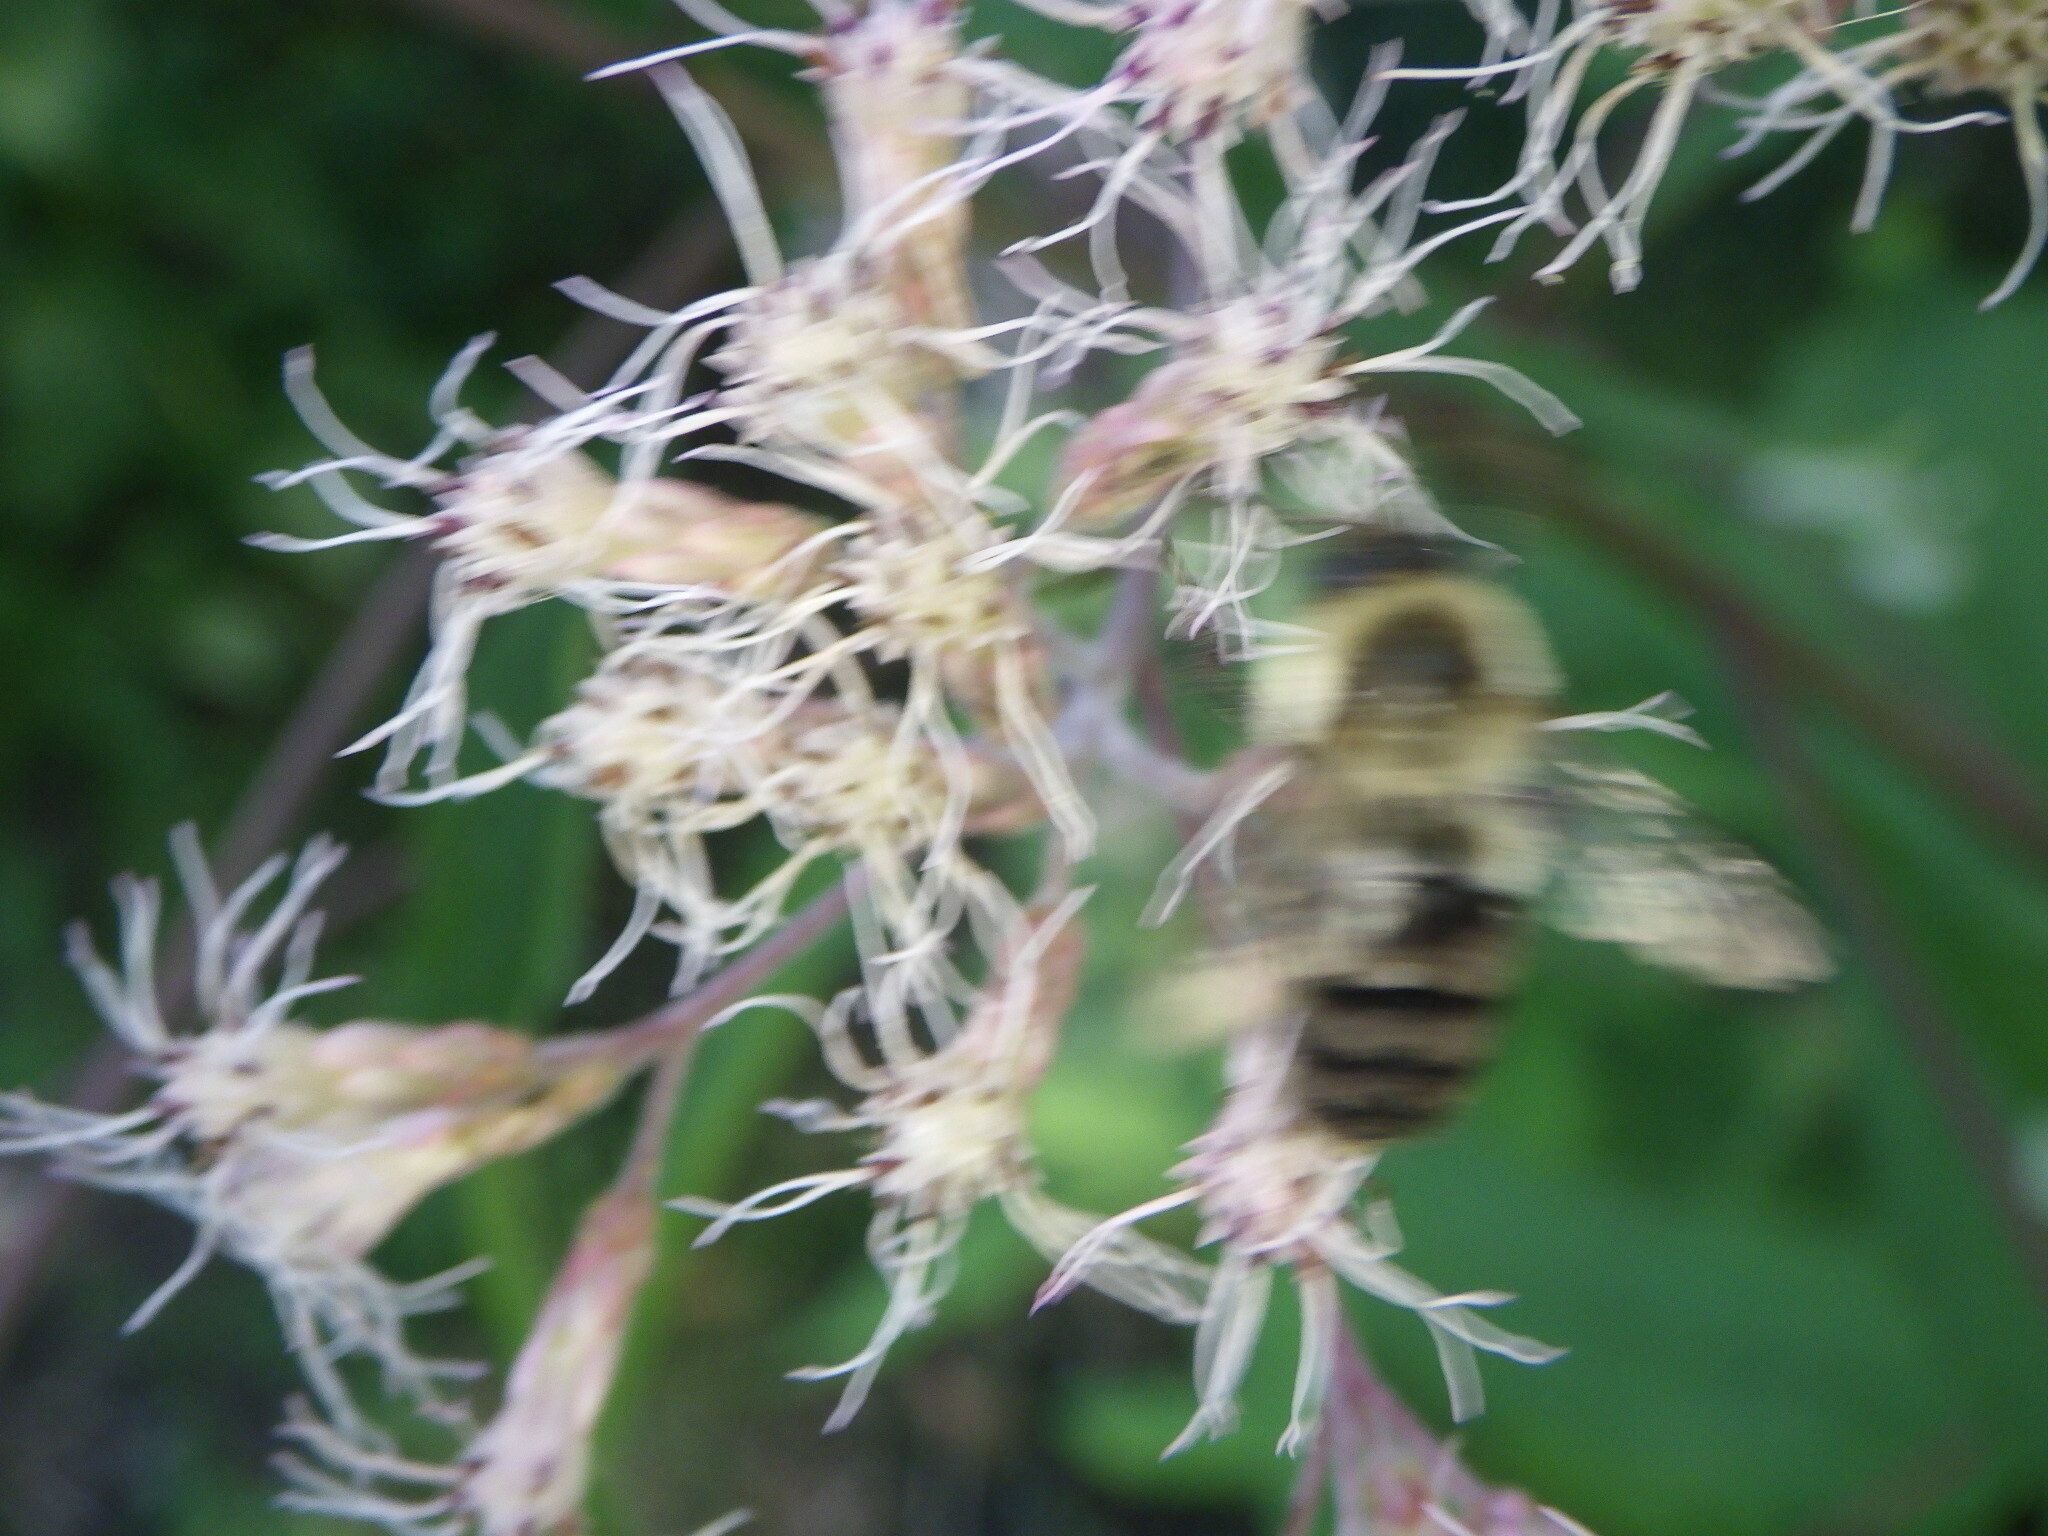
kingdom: Animalia
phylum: Arthropoda
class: Insecta
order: Hymenoptera
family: Apidae
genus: Bombus
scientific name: Bombus impatiens
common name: Common eastern bumble bee
